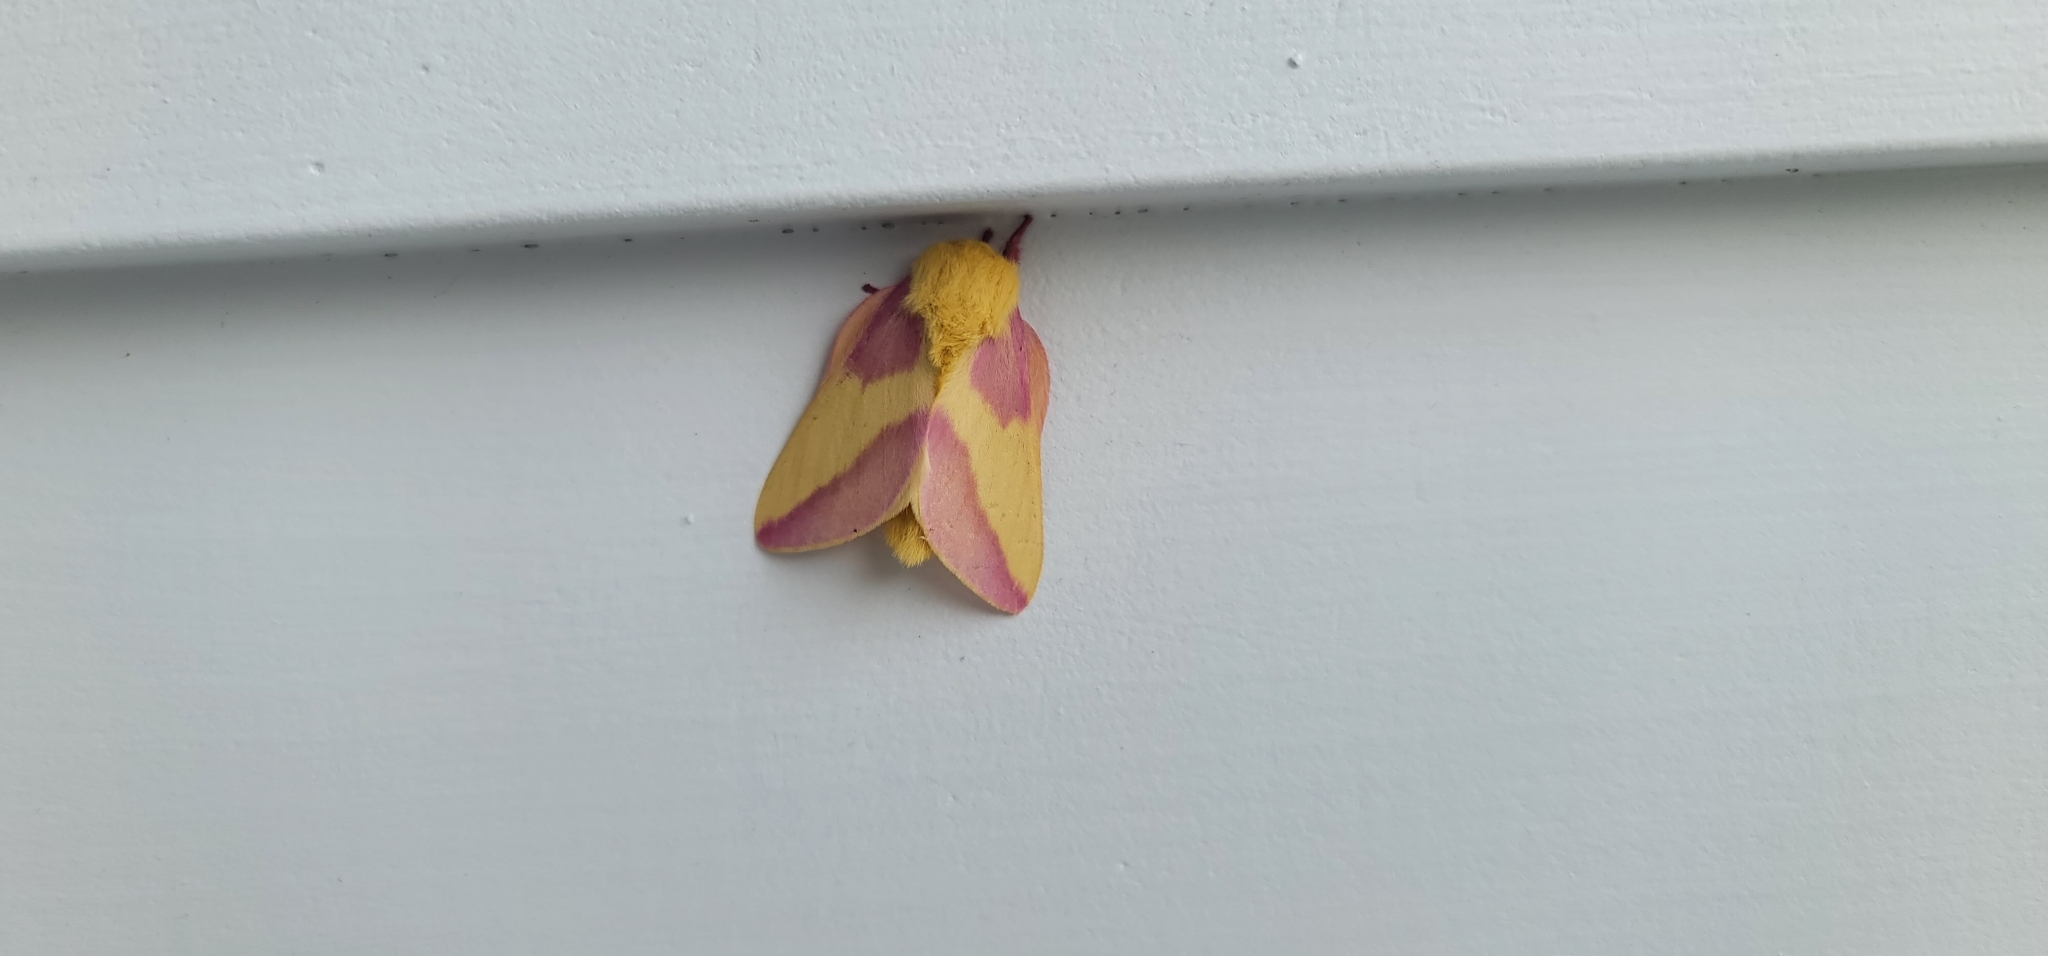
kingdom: Animalia
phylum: Arthropoda
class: Insecta
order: Lepidoptera
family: Saturniidae
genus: Dryocampa
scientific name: Dryocampa rubicunda
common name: Rosy maple moth
